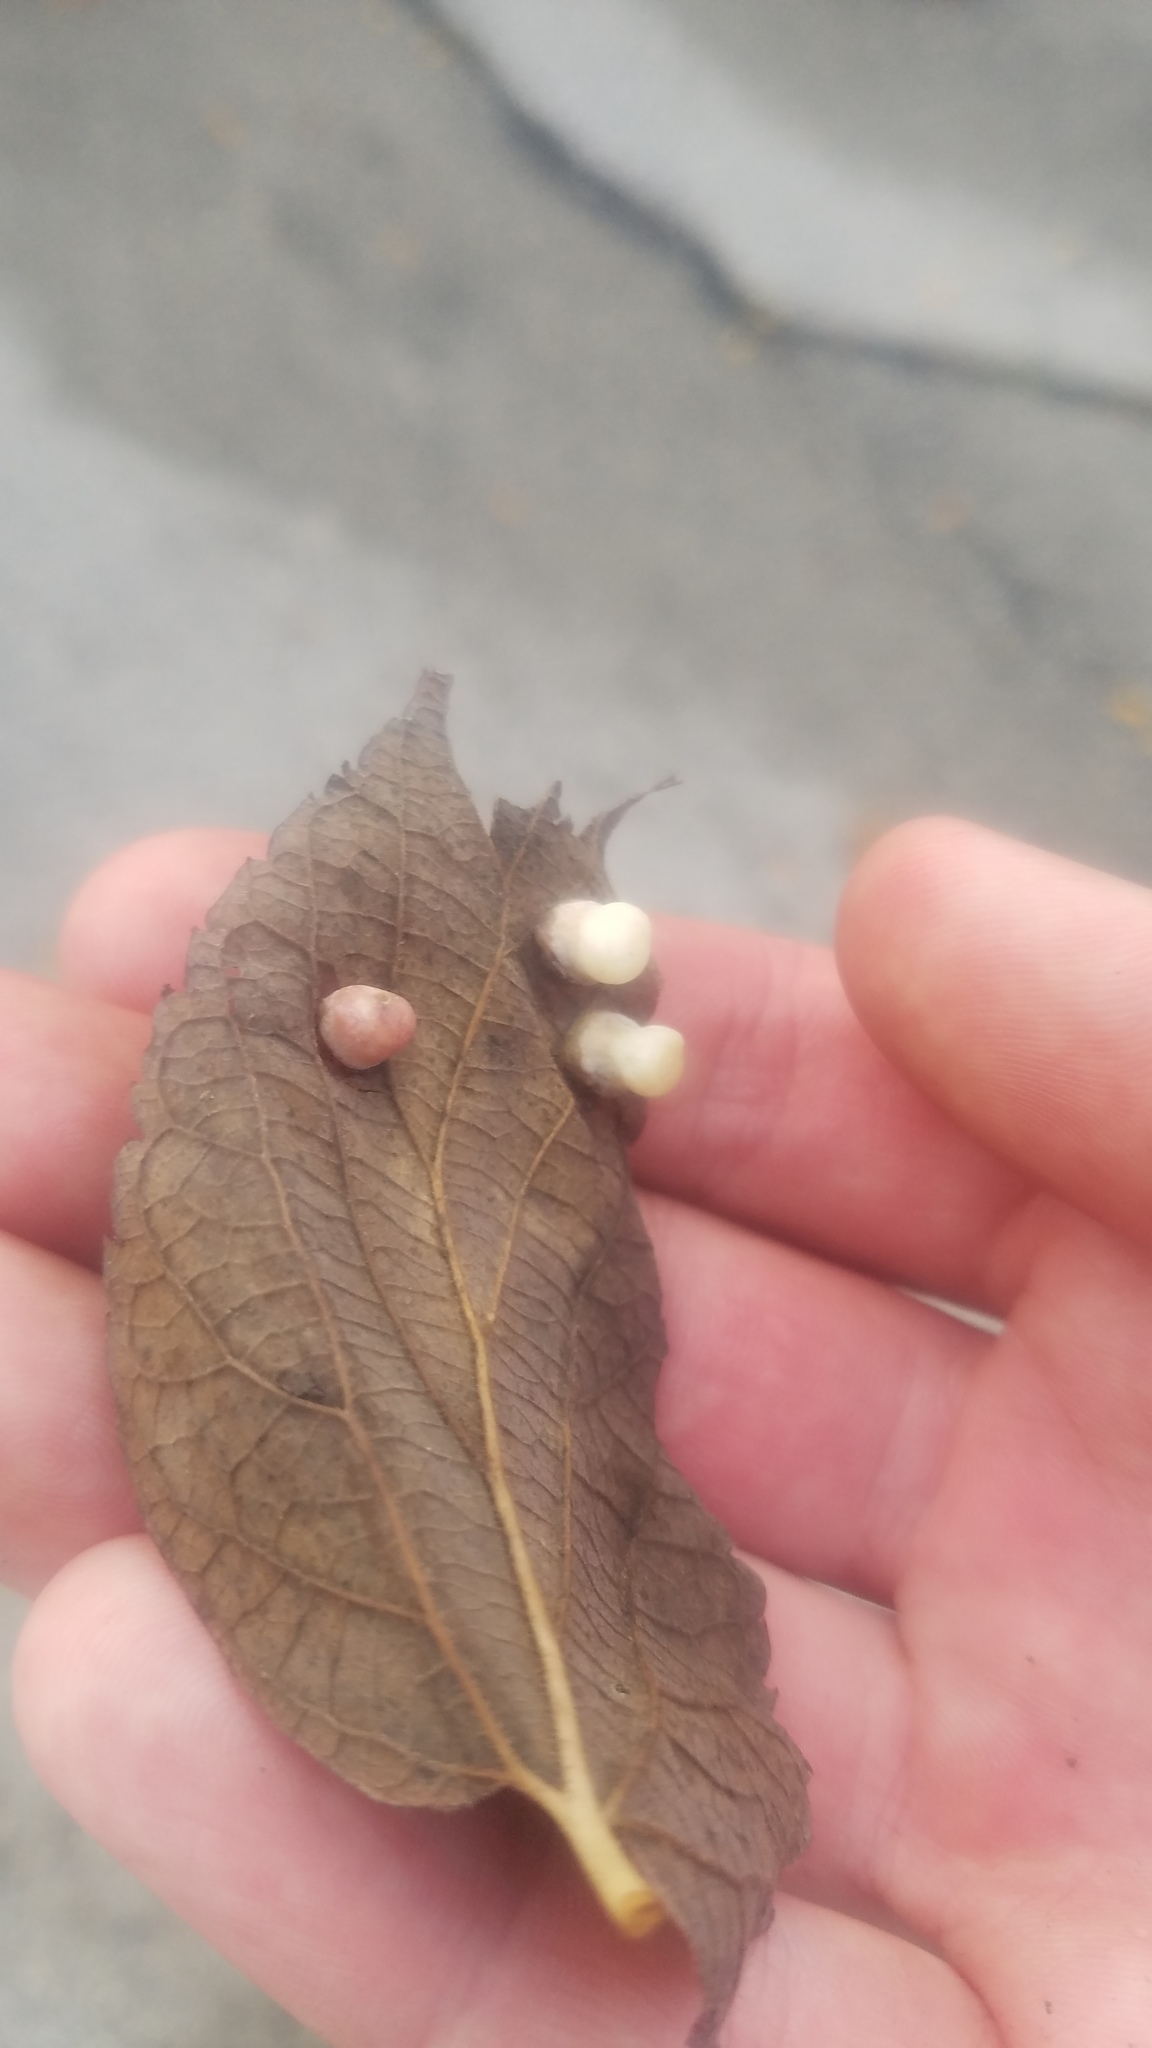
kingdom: Animalia
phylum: Arthropoda
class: Insecta
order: Hemiptera
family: Aphalaridae
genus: Pachypsylla
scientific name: Pachypsylla celtidismamma
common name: Hackberry nipplegall psyllid
